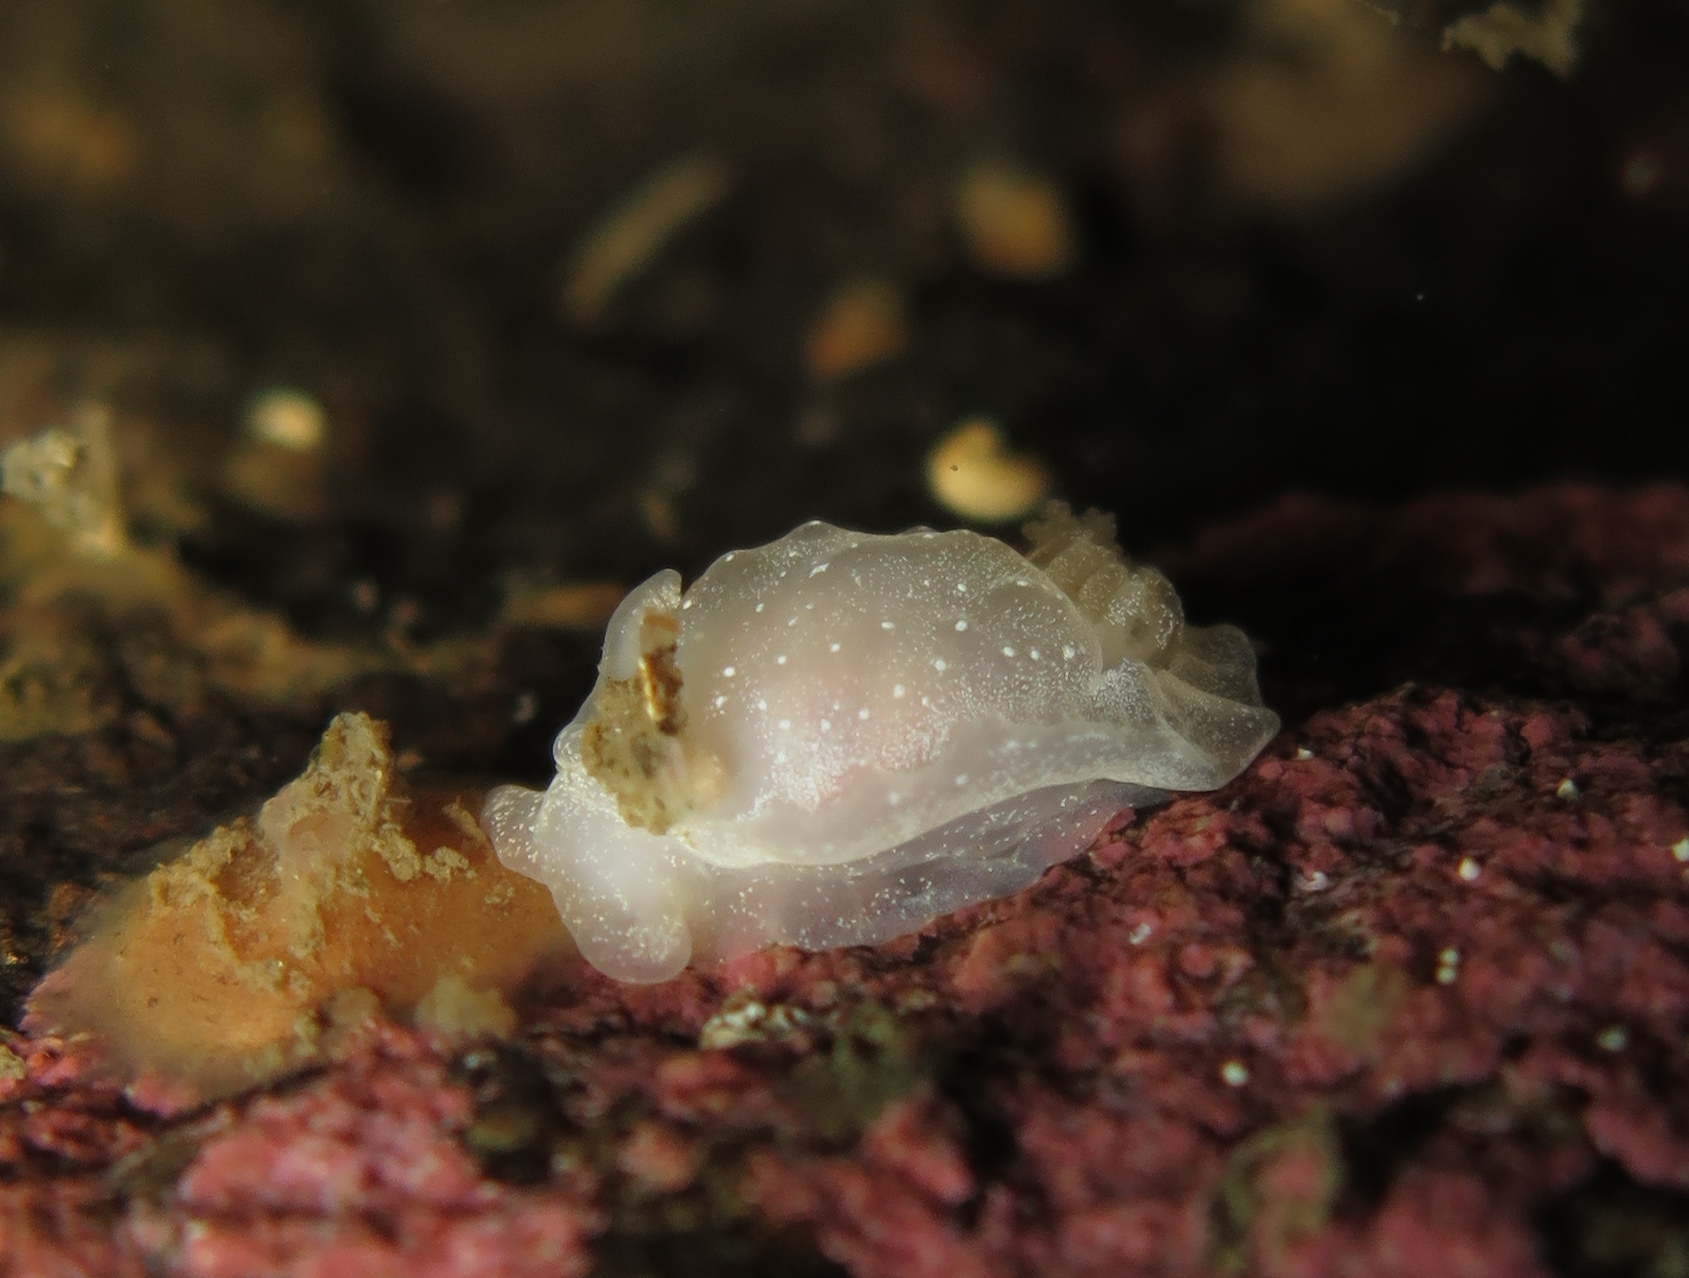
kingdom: Animalia
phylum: Mollusca
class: Gastropoda
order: Nudibranchia
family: Goniodorididae
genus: Okenia
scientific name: Okenia
